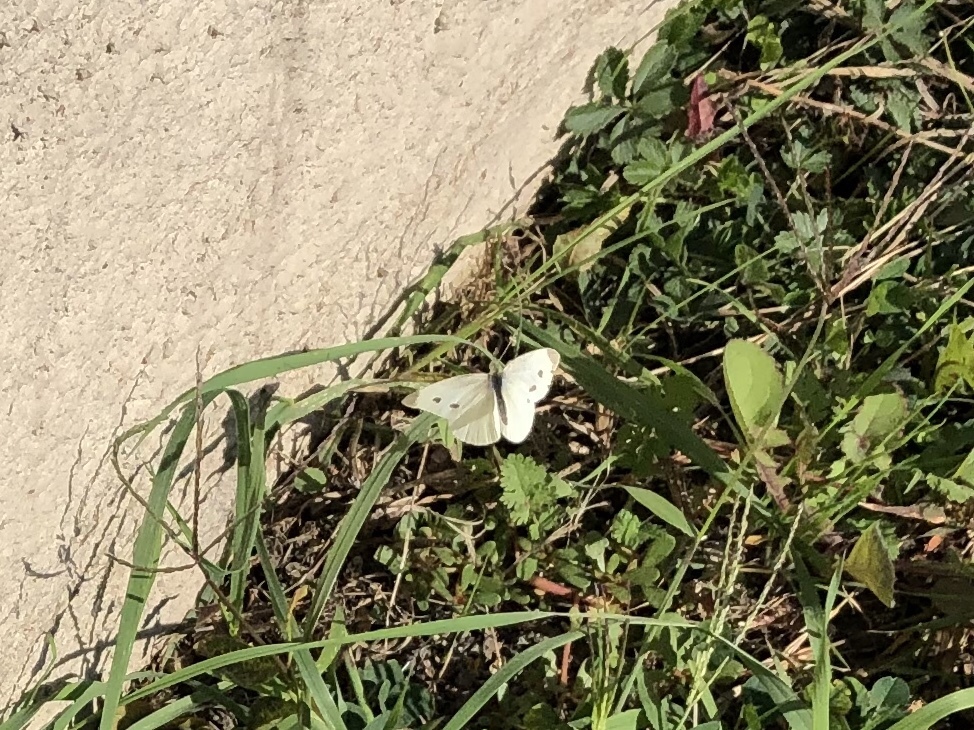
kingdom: Animalia
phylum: Arthropoda
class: Insecta
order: Lepidoptera
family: Pieridae
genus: Pieris
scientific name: Pieris rapae
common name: Small white
